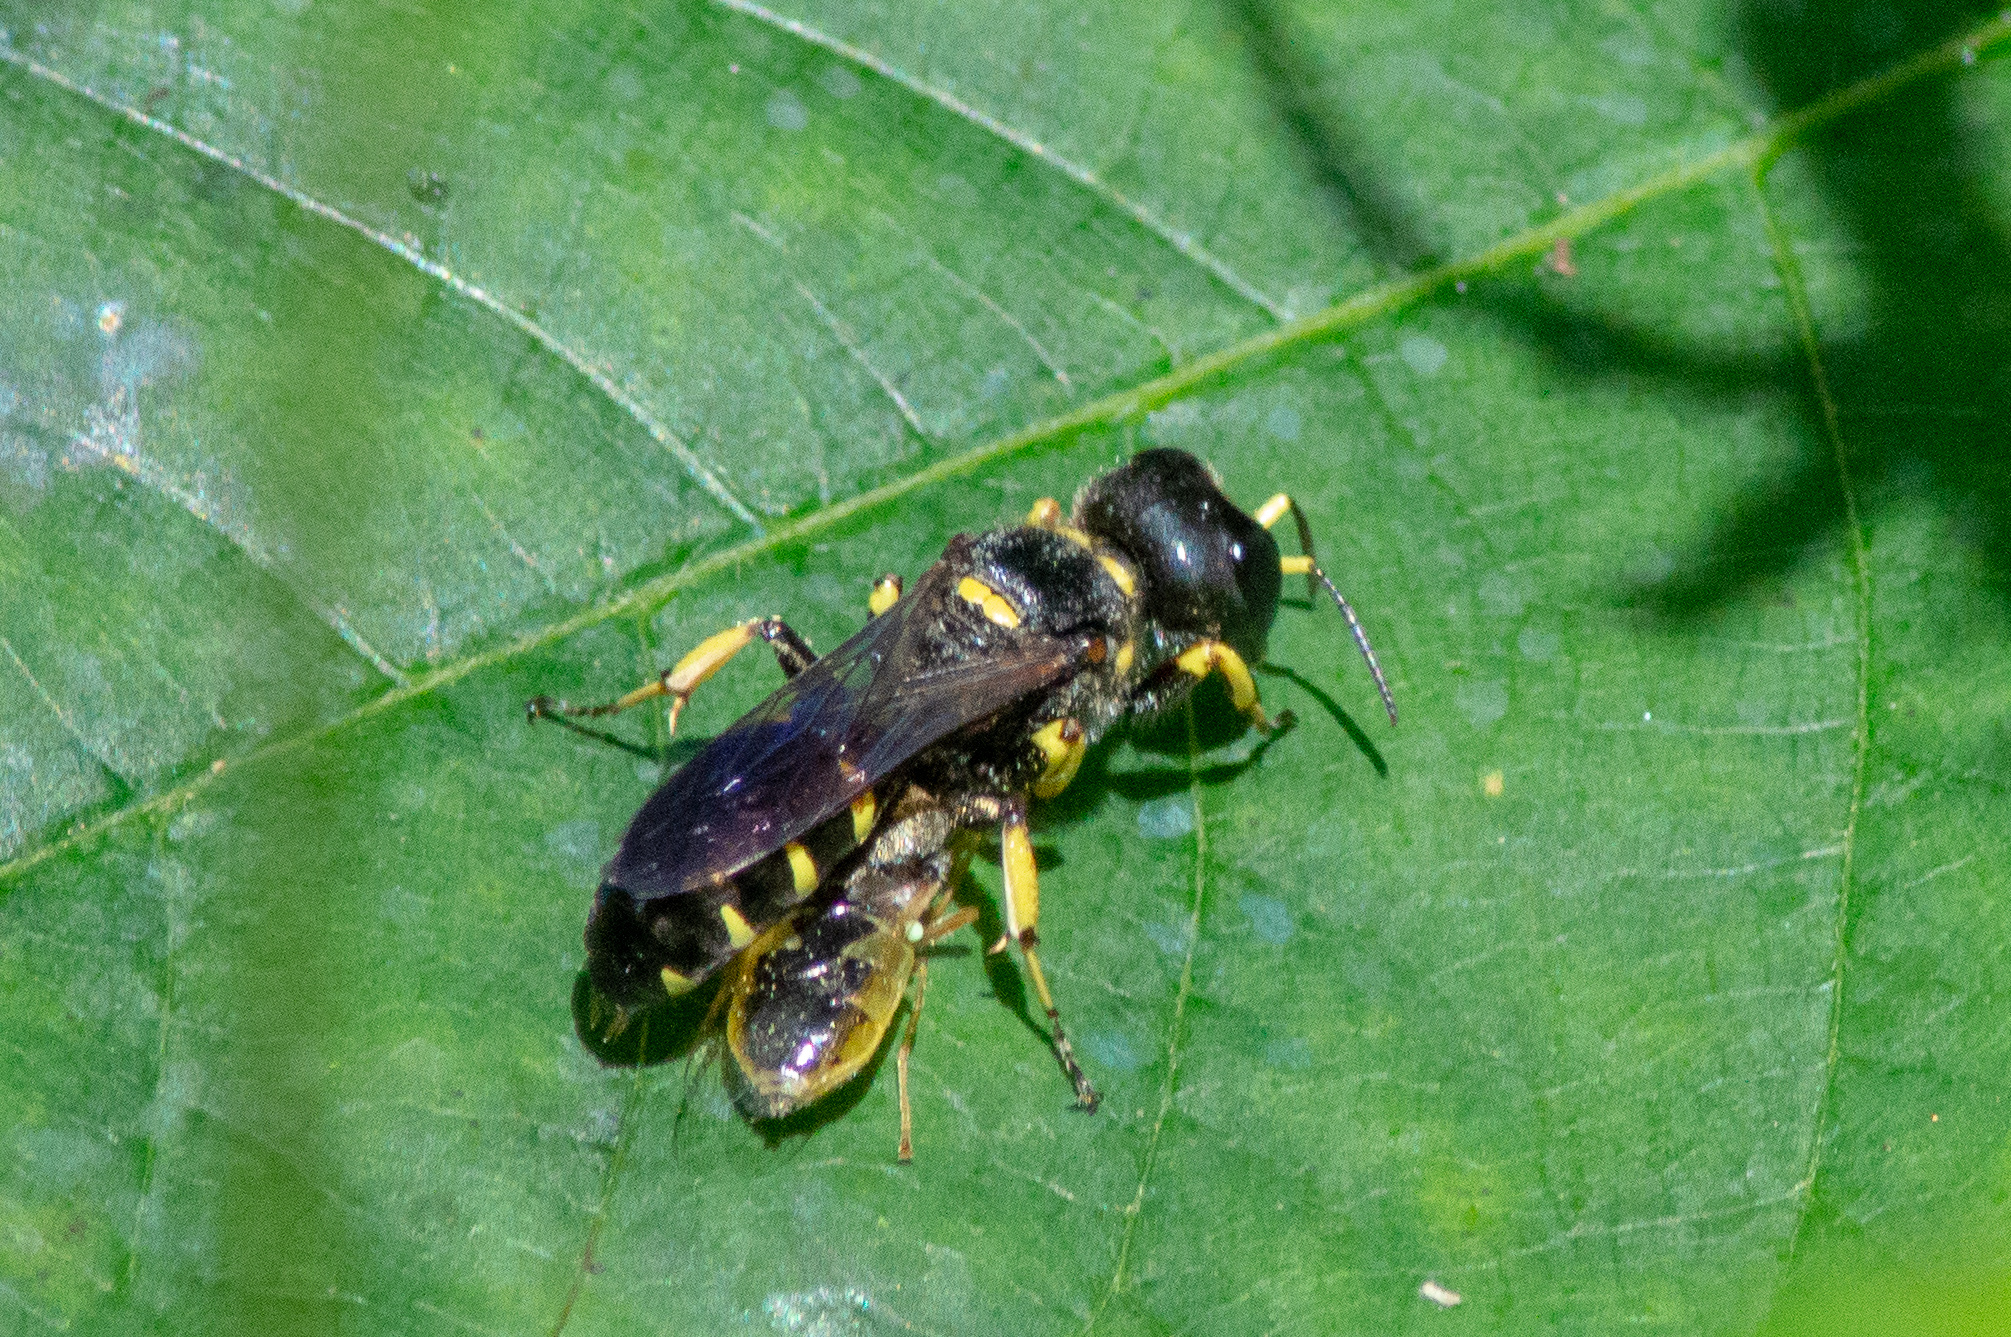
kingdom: Animalia
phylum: Arthropoda
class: Insecta
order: Hymenoptera
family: Crabronidae
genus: Ectemnius
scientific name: Ectemnius maculosus
